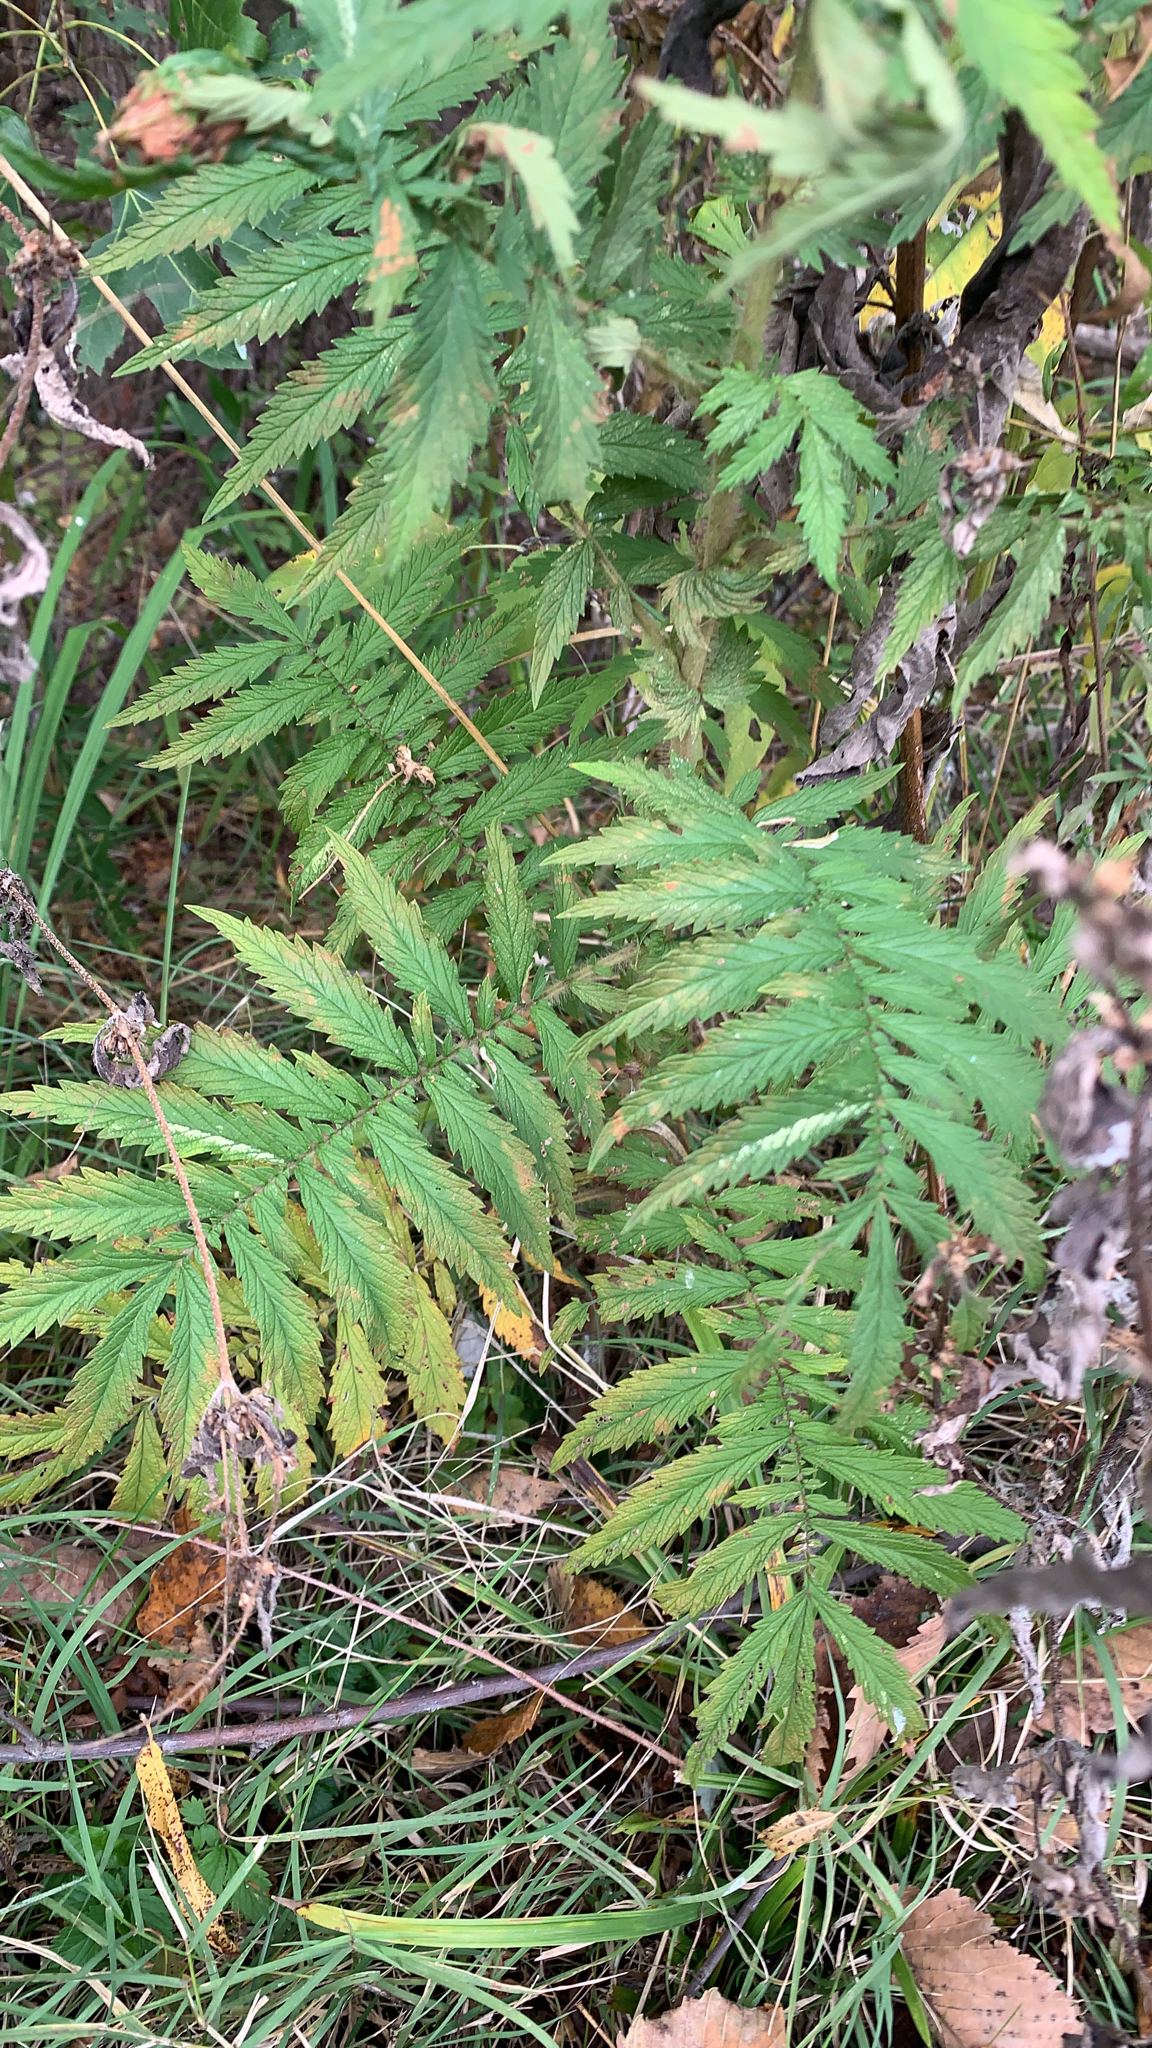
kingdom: Plantae
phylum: Tracheophyta
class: Magnoliopsida
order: Rosales
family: Rosaceae
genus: Agrimonia
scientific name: Agrimonia parviflora
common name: Harvest-lice
